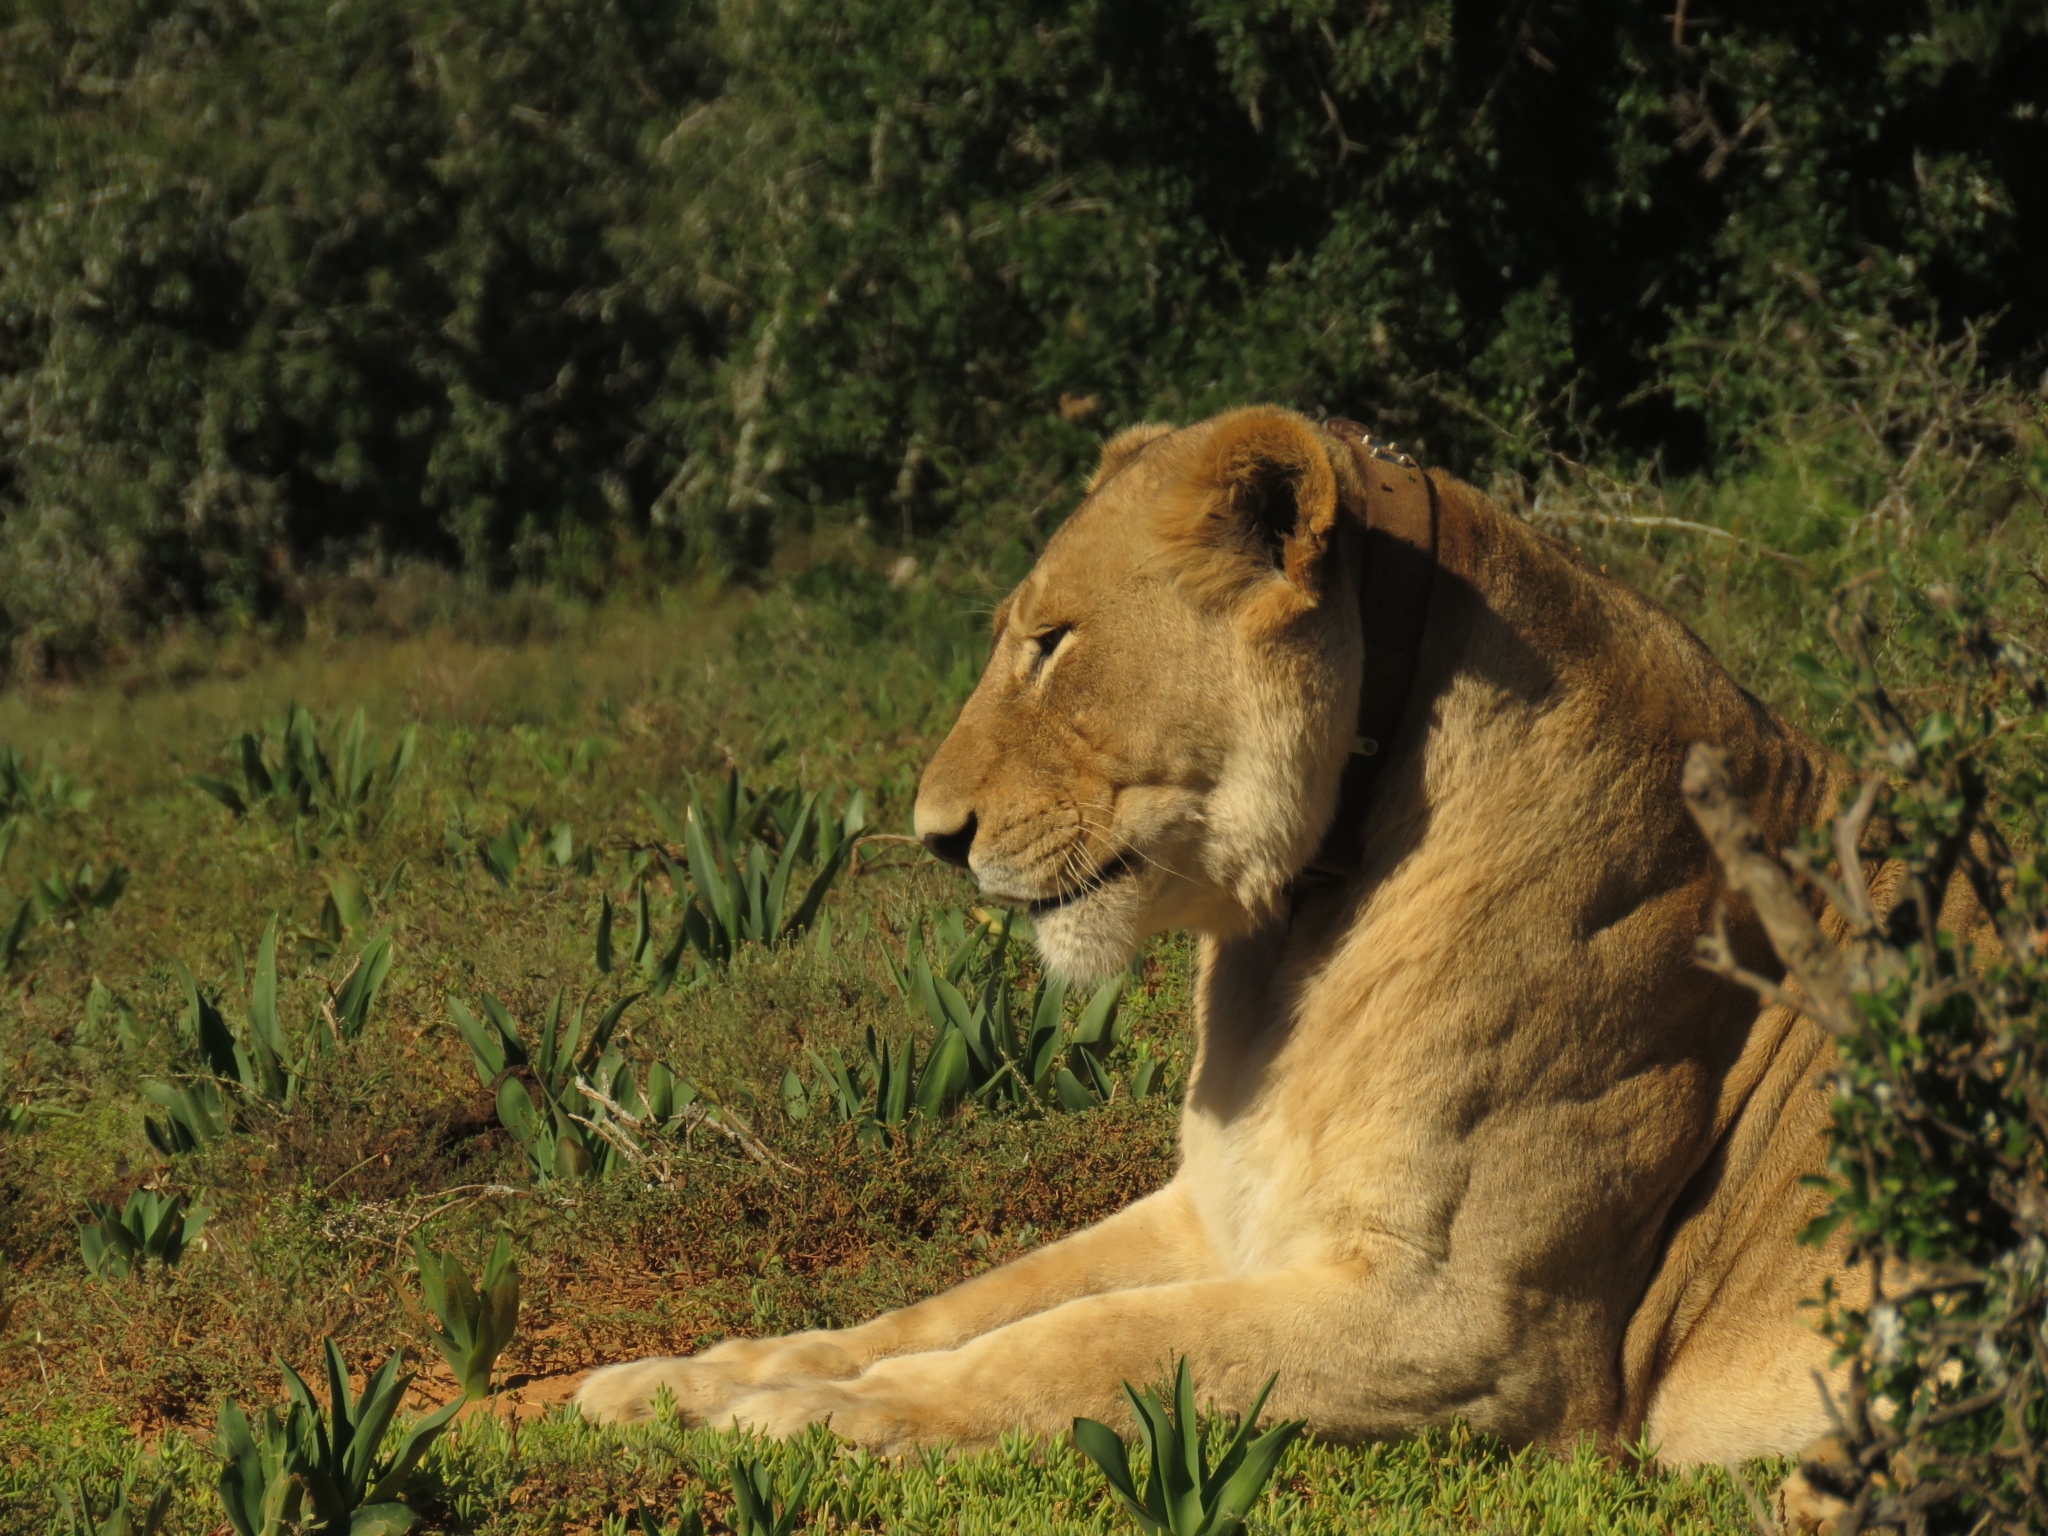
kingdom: Animalia
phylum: Chordata
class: Mammalia
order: Carnivora
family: Felidae
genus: Panthera
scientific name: Panthera leo
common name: Lion
